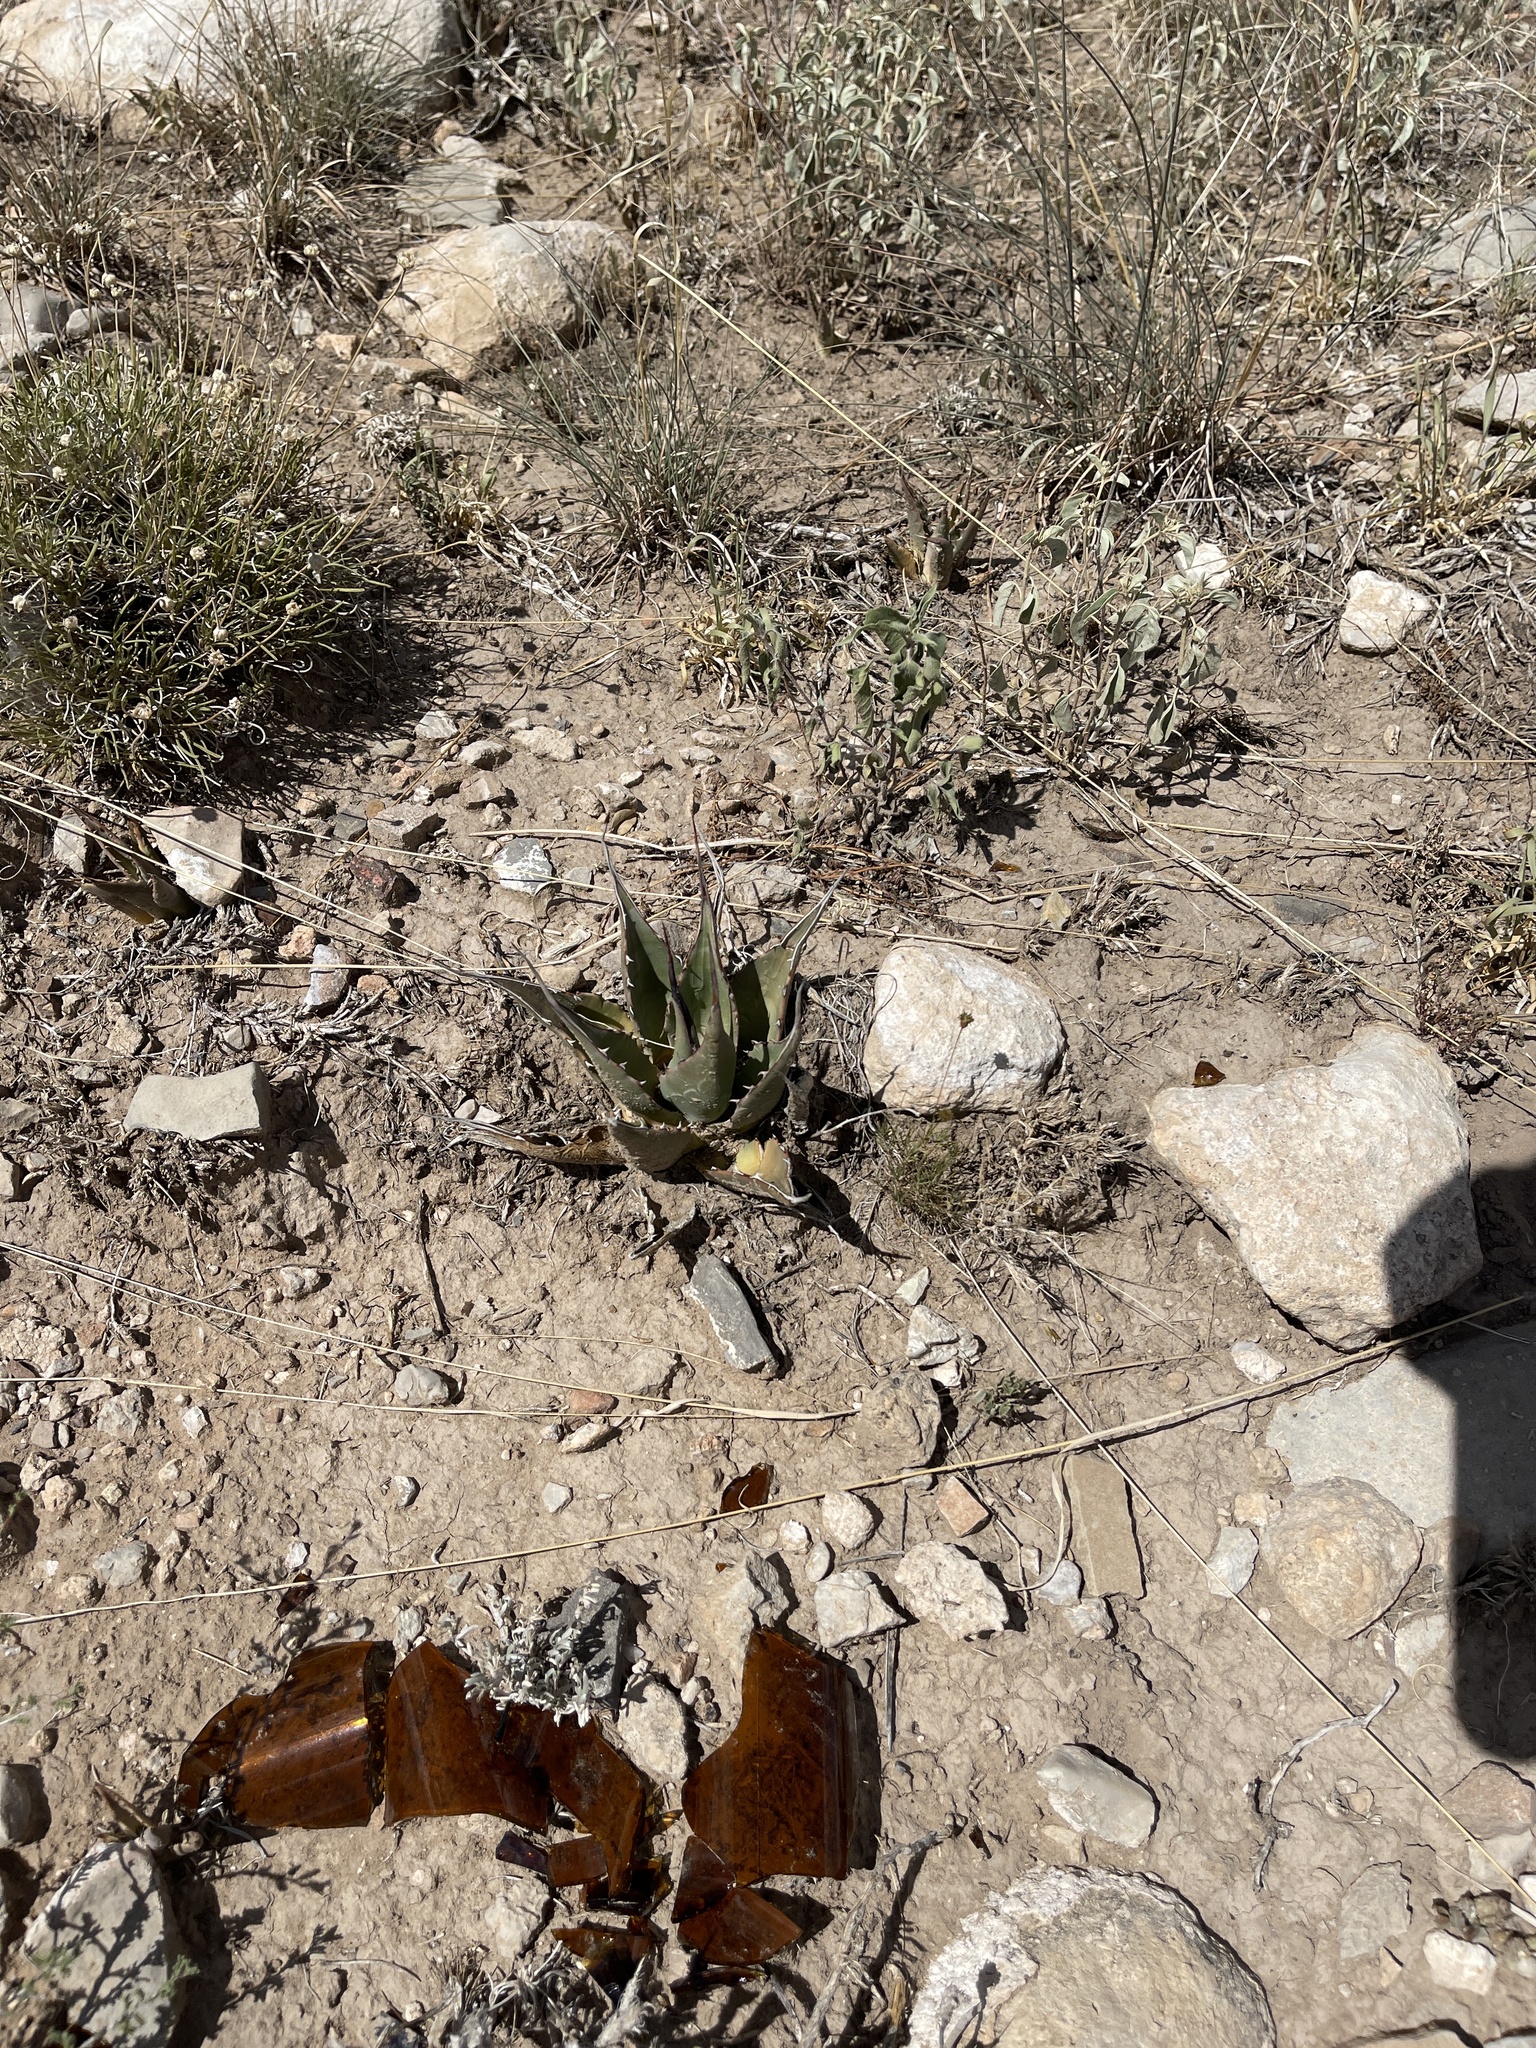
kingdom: Plantae
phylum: Tracheophyta
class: Liliopsida
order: Asparagales
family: Asparagaceae
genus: Agave
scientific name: Agave parryi
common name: Parry's agave
